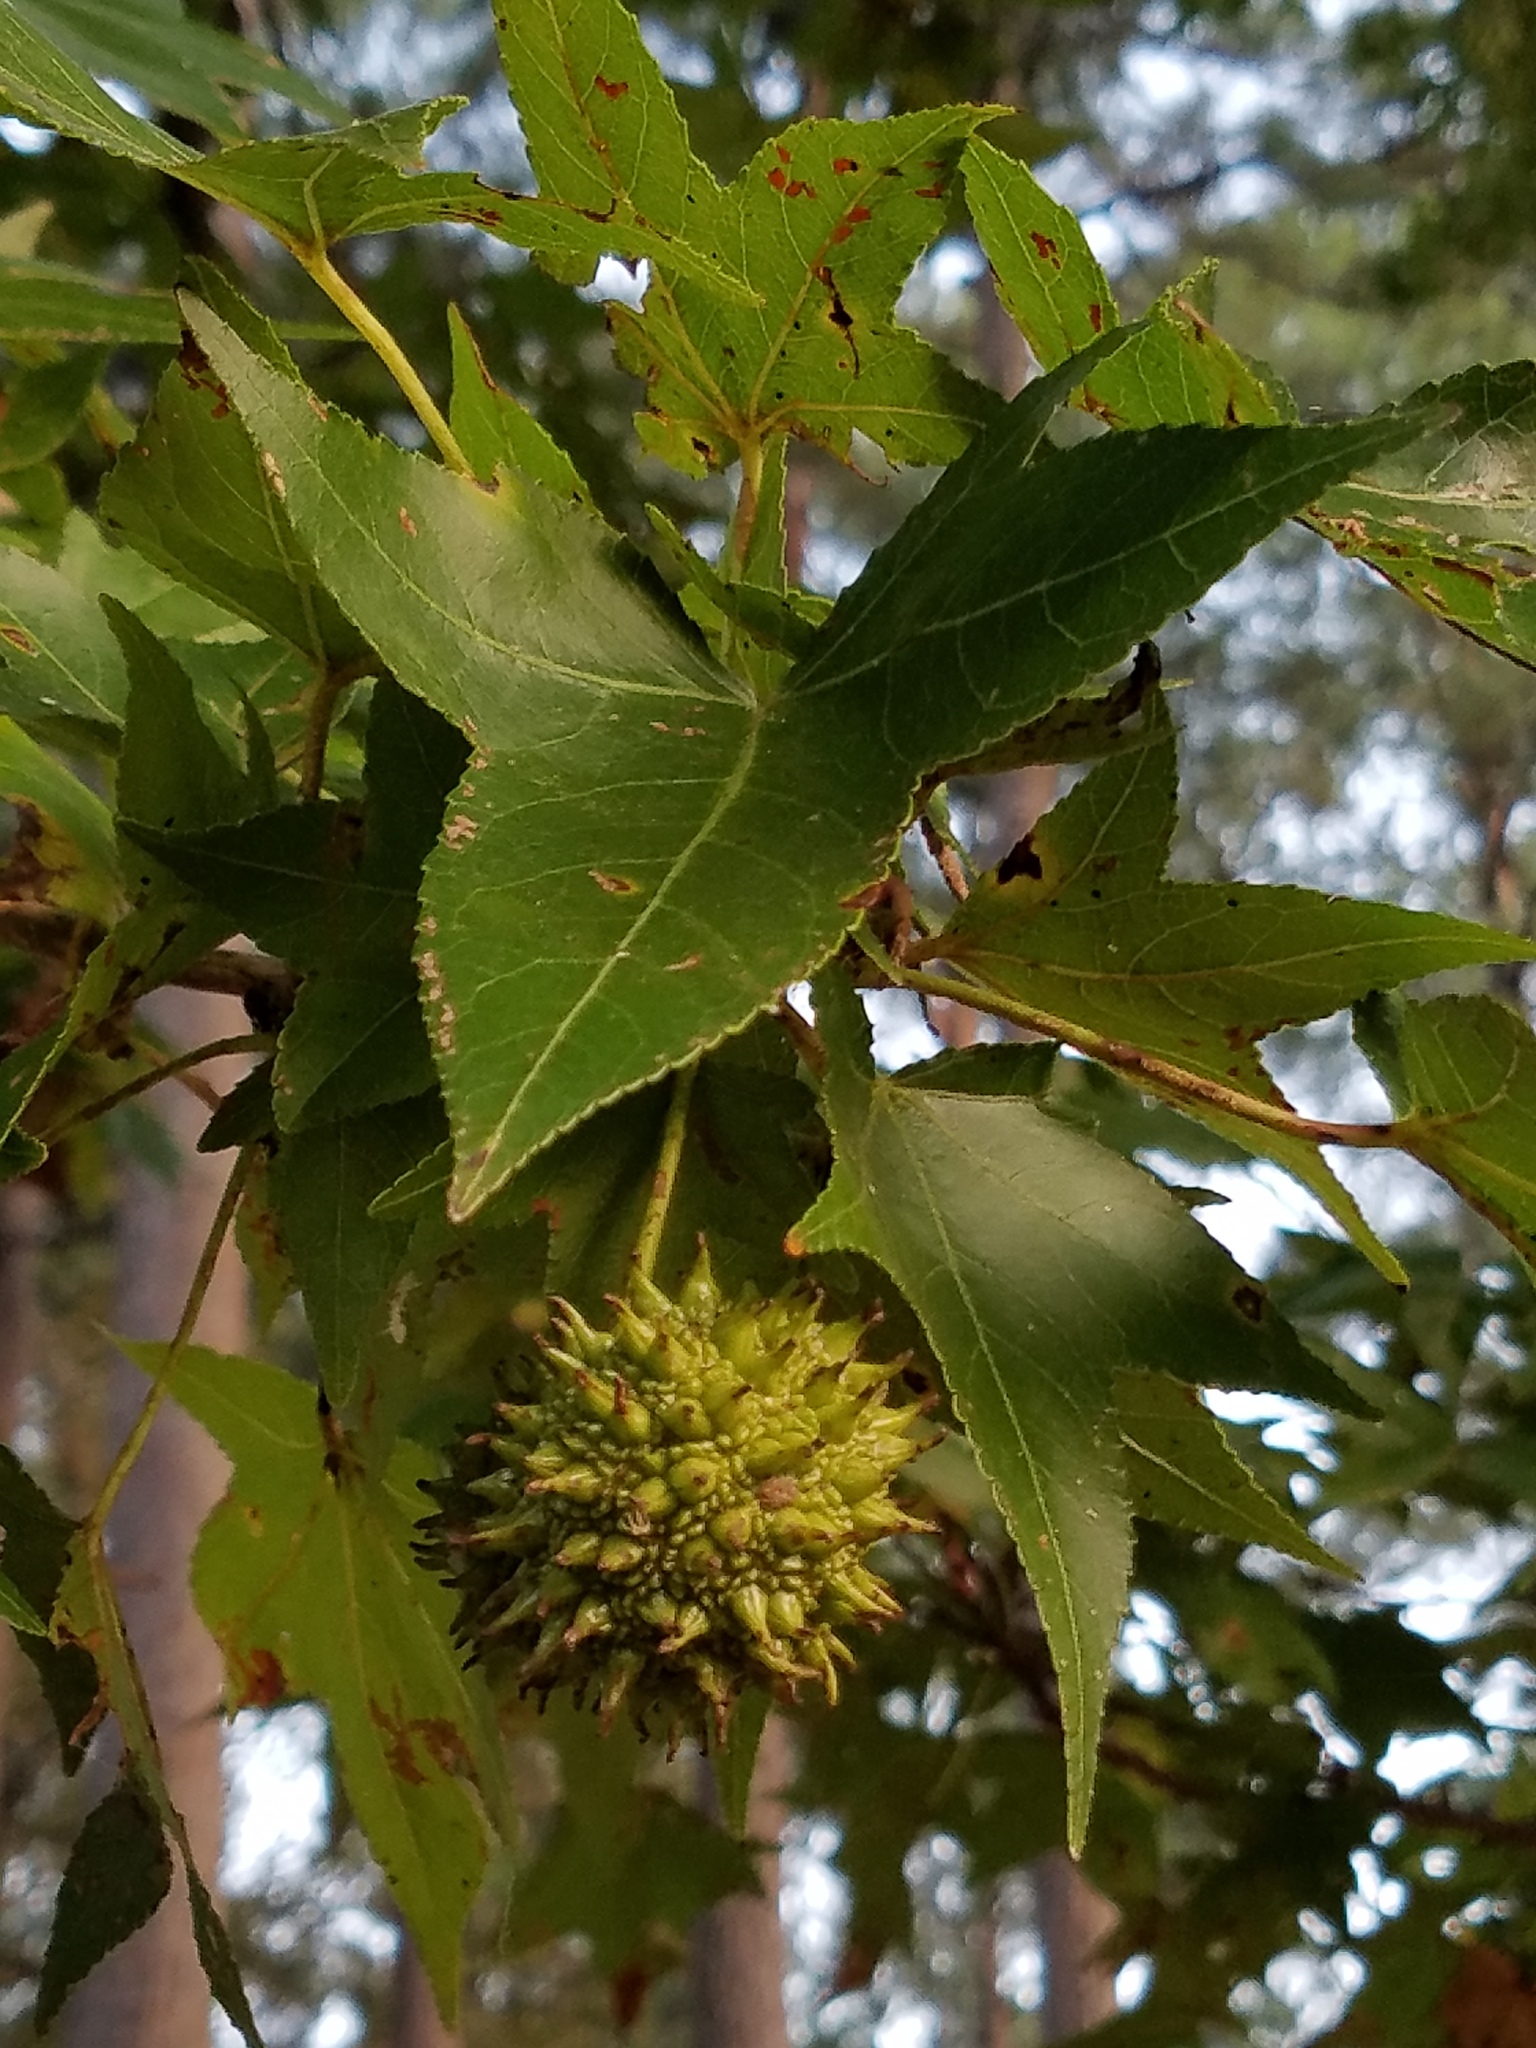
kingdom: Plantae
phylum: Tracheophyta
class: Magnoliopsida
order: Saxifragales
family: Altingiaceae
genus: Liquidambar
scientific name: Liquidambar styraciflua
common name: Sweet gum
